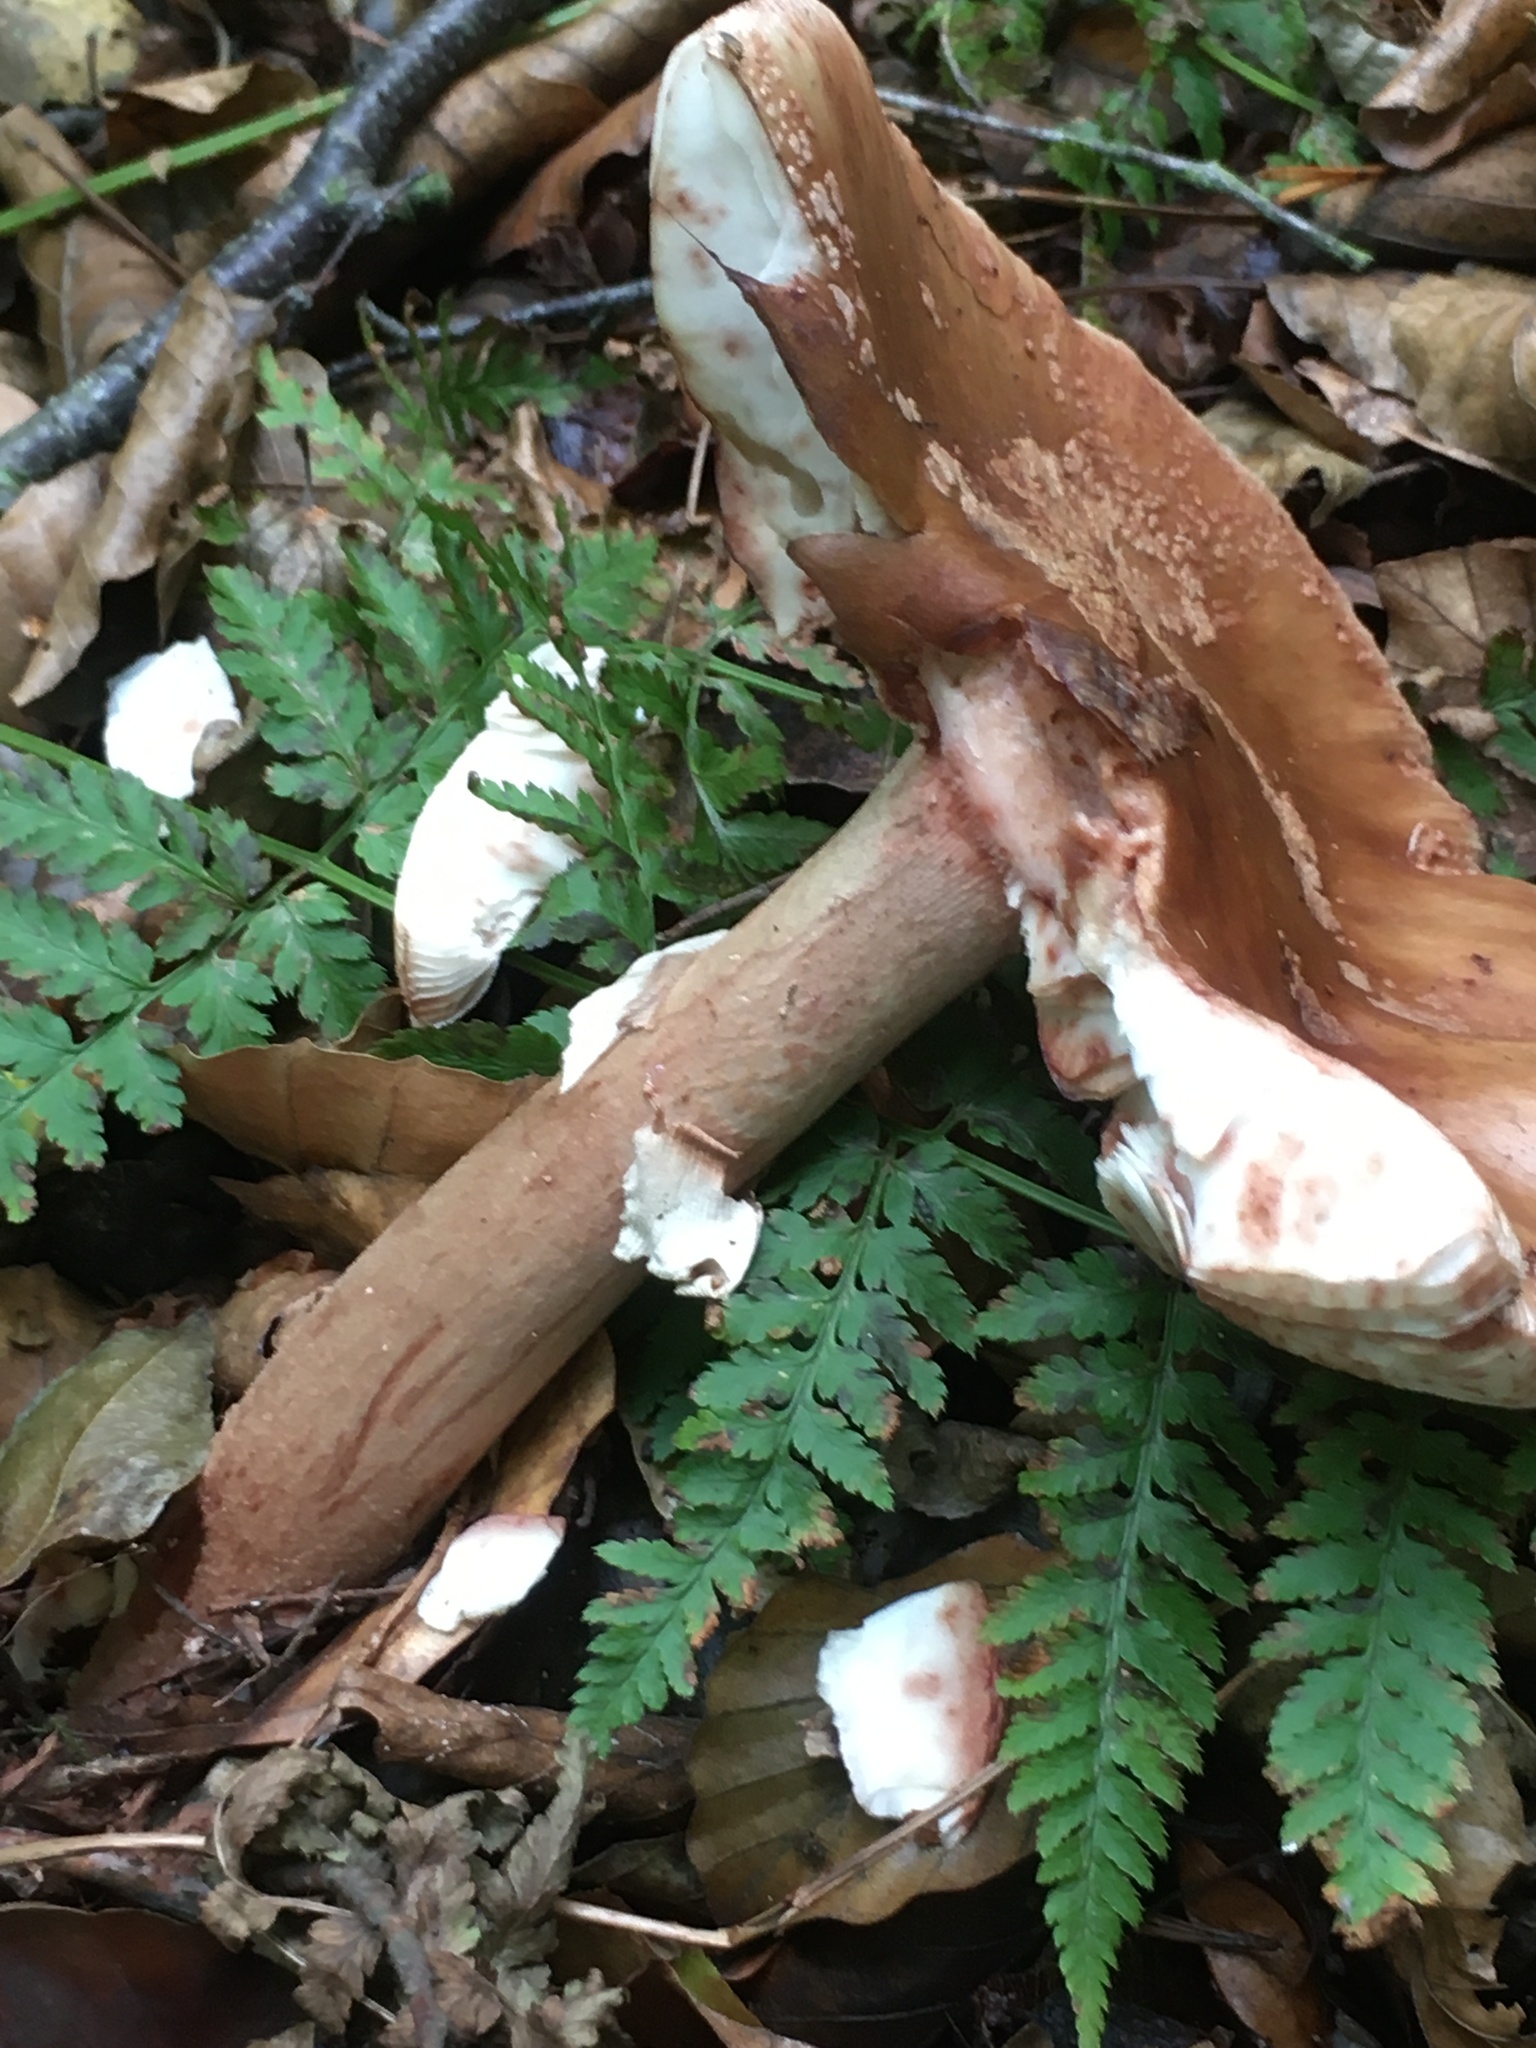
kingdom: Fungi
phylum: Basidiomycota
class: Agaricomycetes
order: Agaricales
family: Amanitaceae
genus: Amanita
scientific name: Amanita rubescens
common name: Blusher
